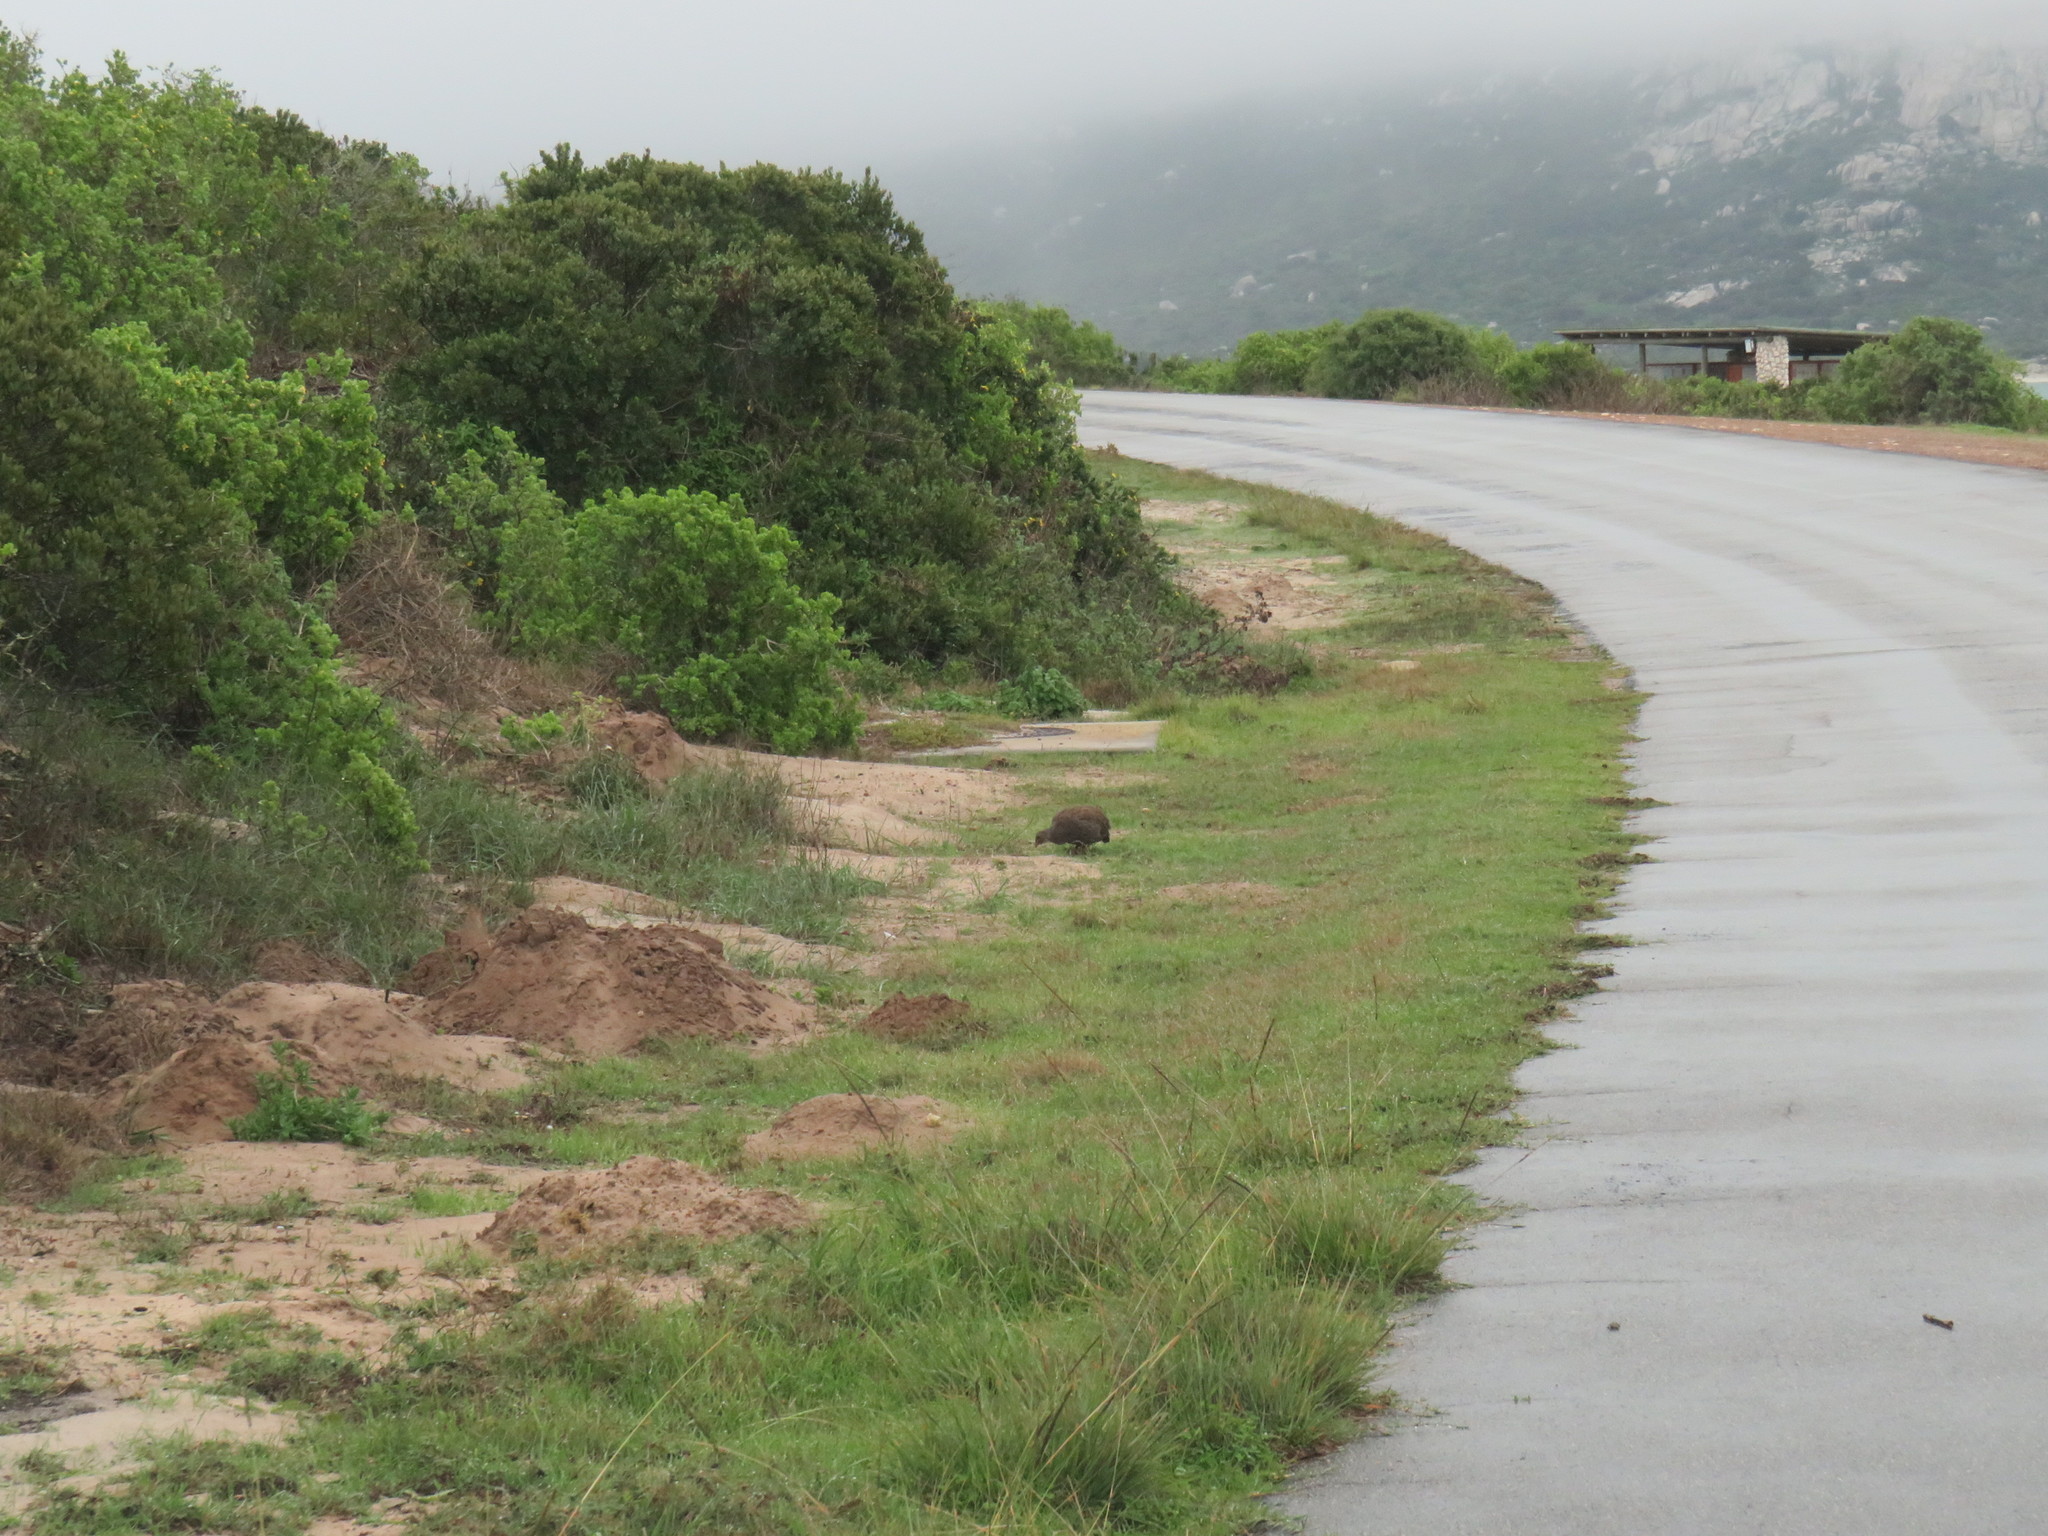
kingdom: Animalia
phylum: Chordata
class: Aves
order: Galliformes
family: Phasianidae
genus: Pternistis
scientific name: Pternistis capensis
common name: Cape spurfowl
